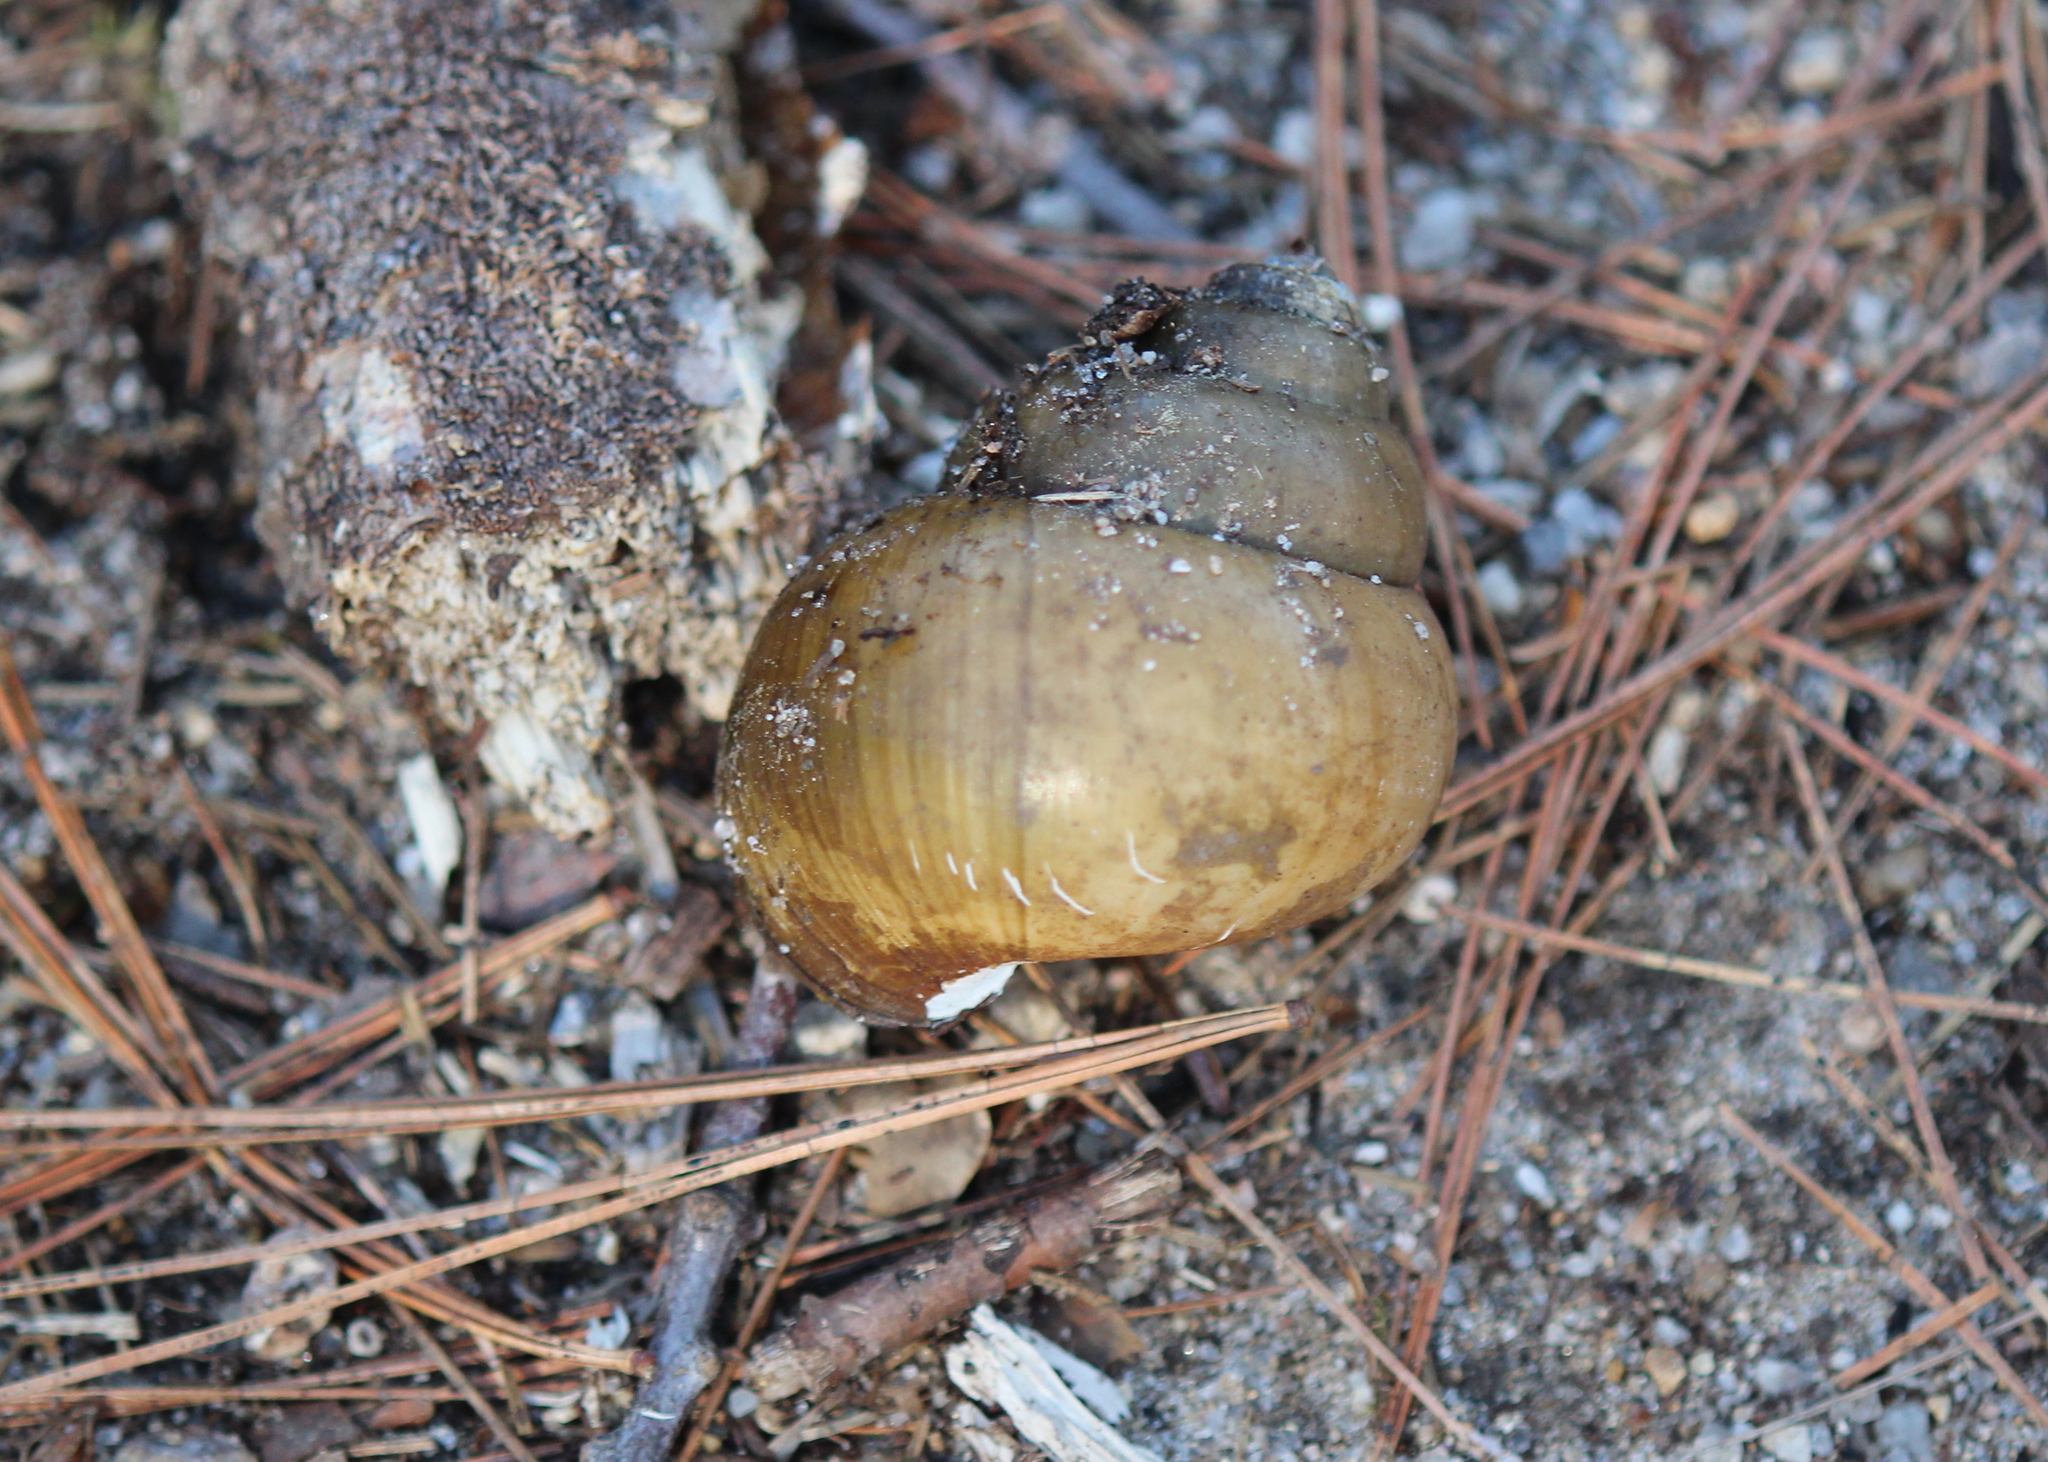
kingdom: Animalia
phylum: Mollusca
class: Gastropoda
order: Architaenioglossa
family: Viviparidae
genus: Cipangopaludina
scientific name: Cipangopaludina chinensis
